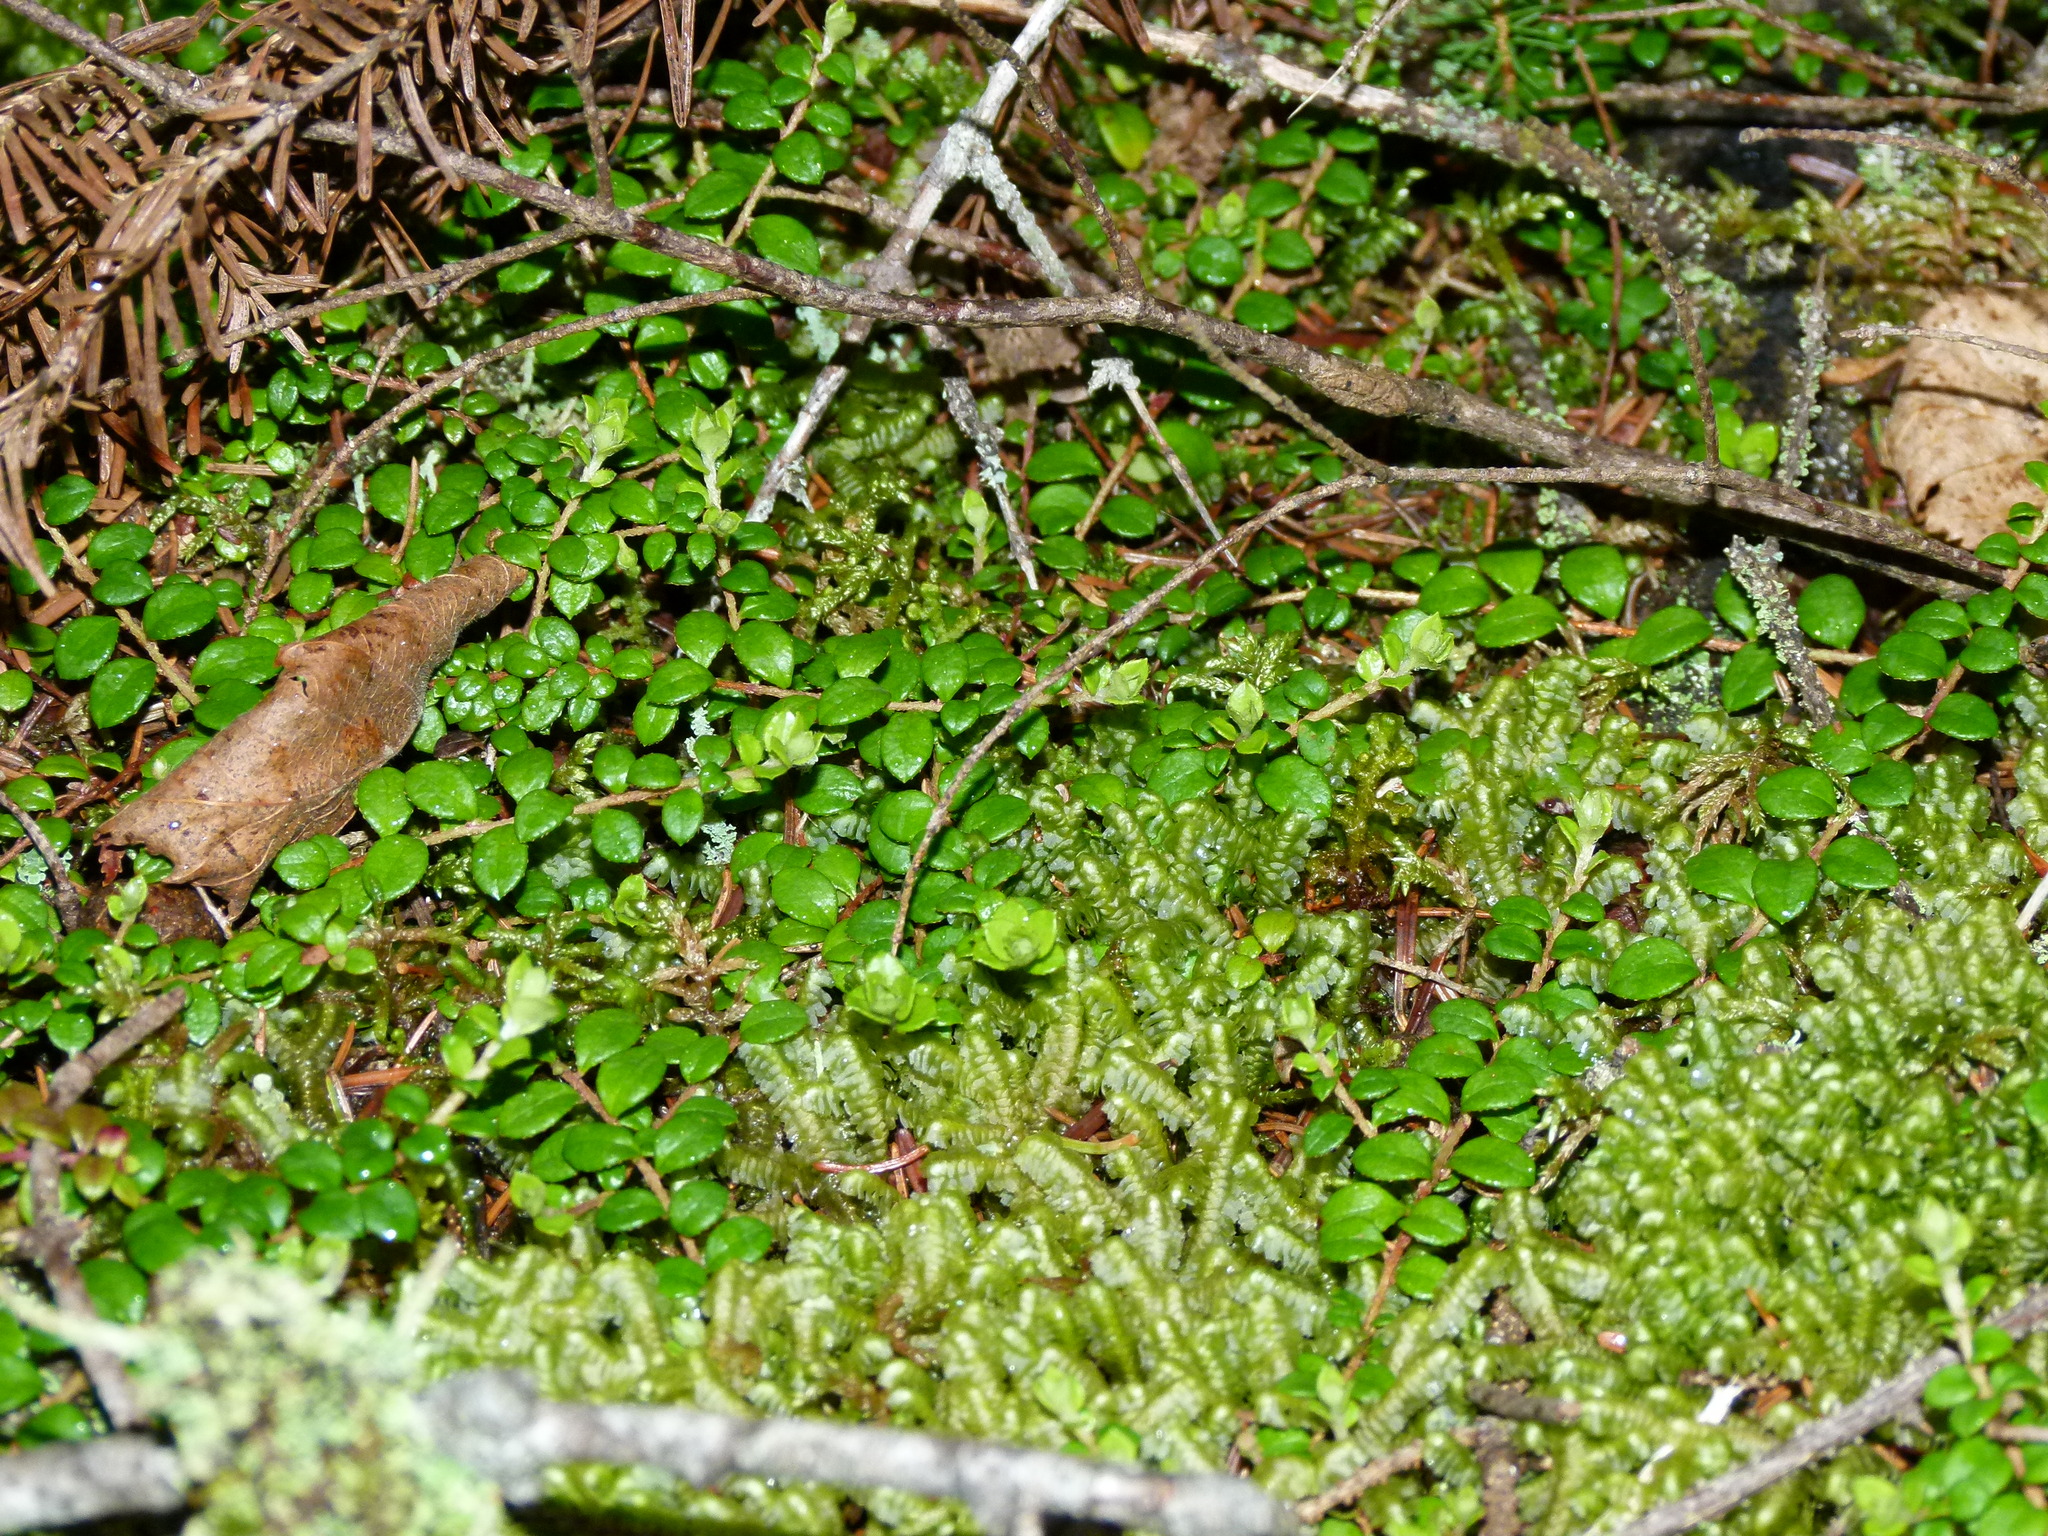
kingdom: Plantae
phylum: Tracheophyta
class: Magnoliopsida
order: Ericales
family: Ericaceae
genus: Gaultheria
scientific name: Gaultheria hispidula
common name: Cancer wintergreen
